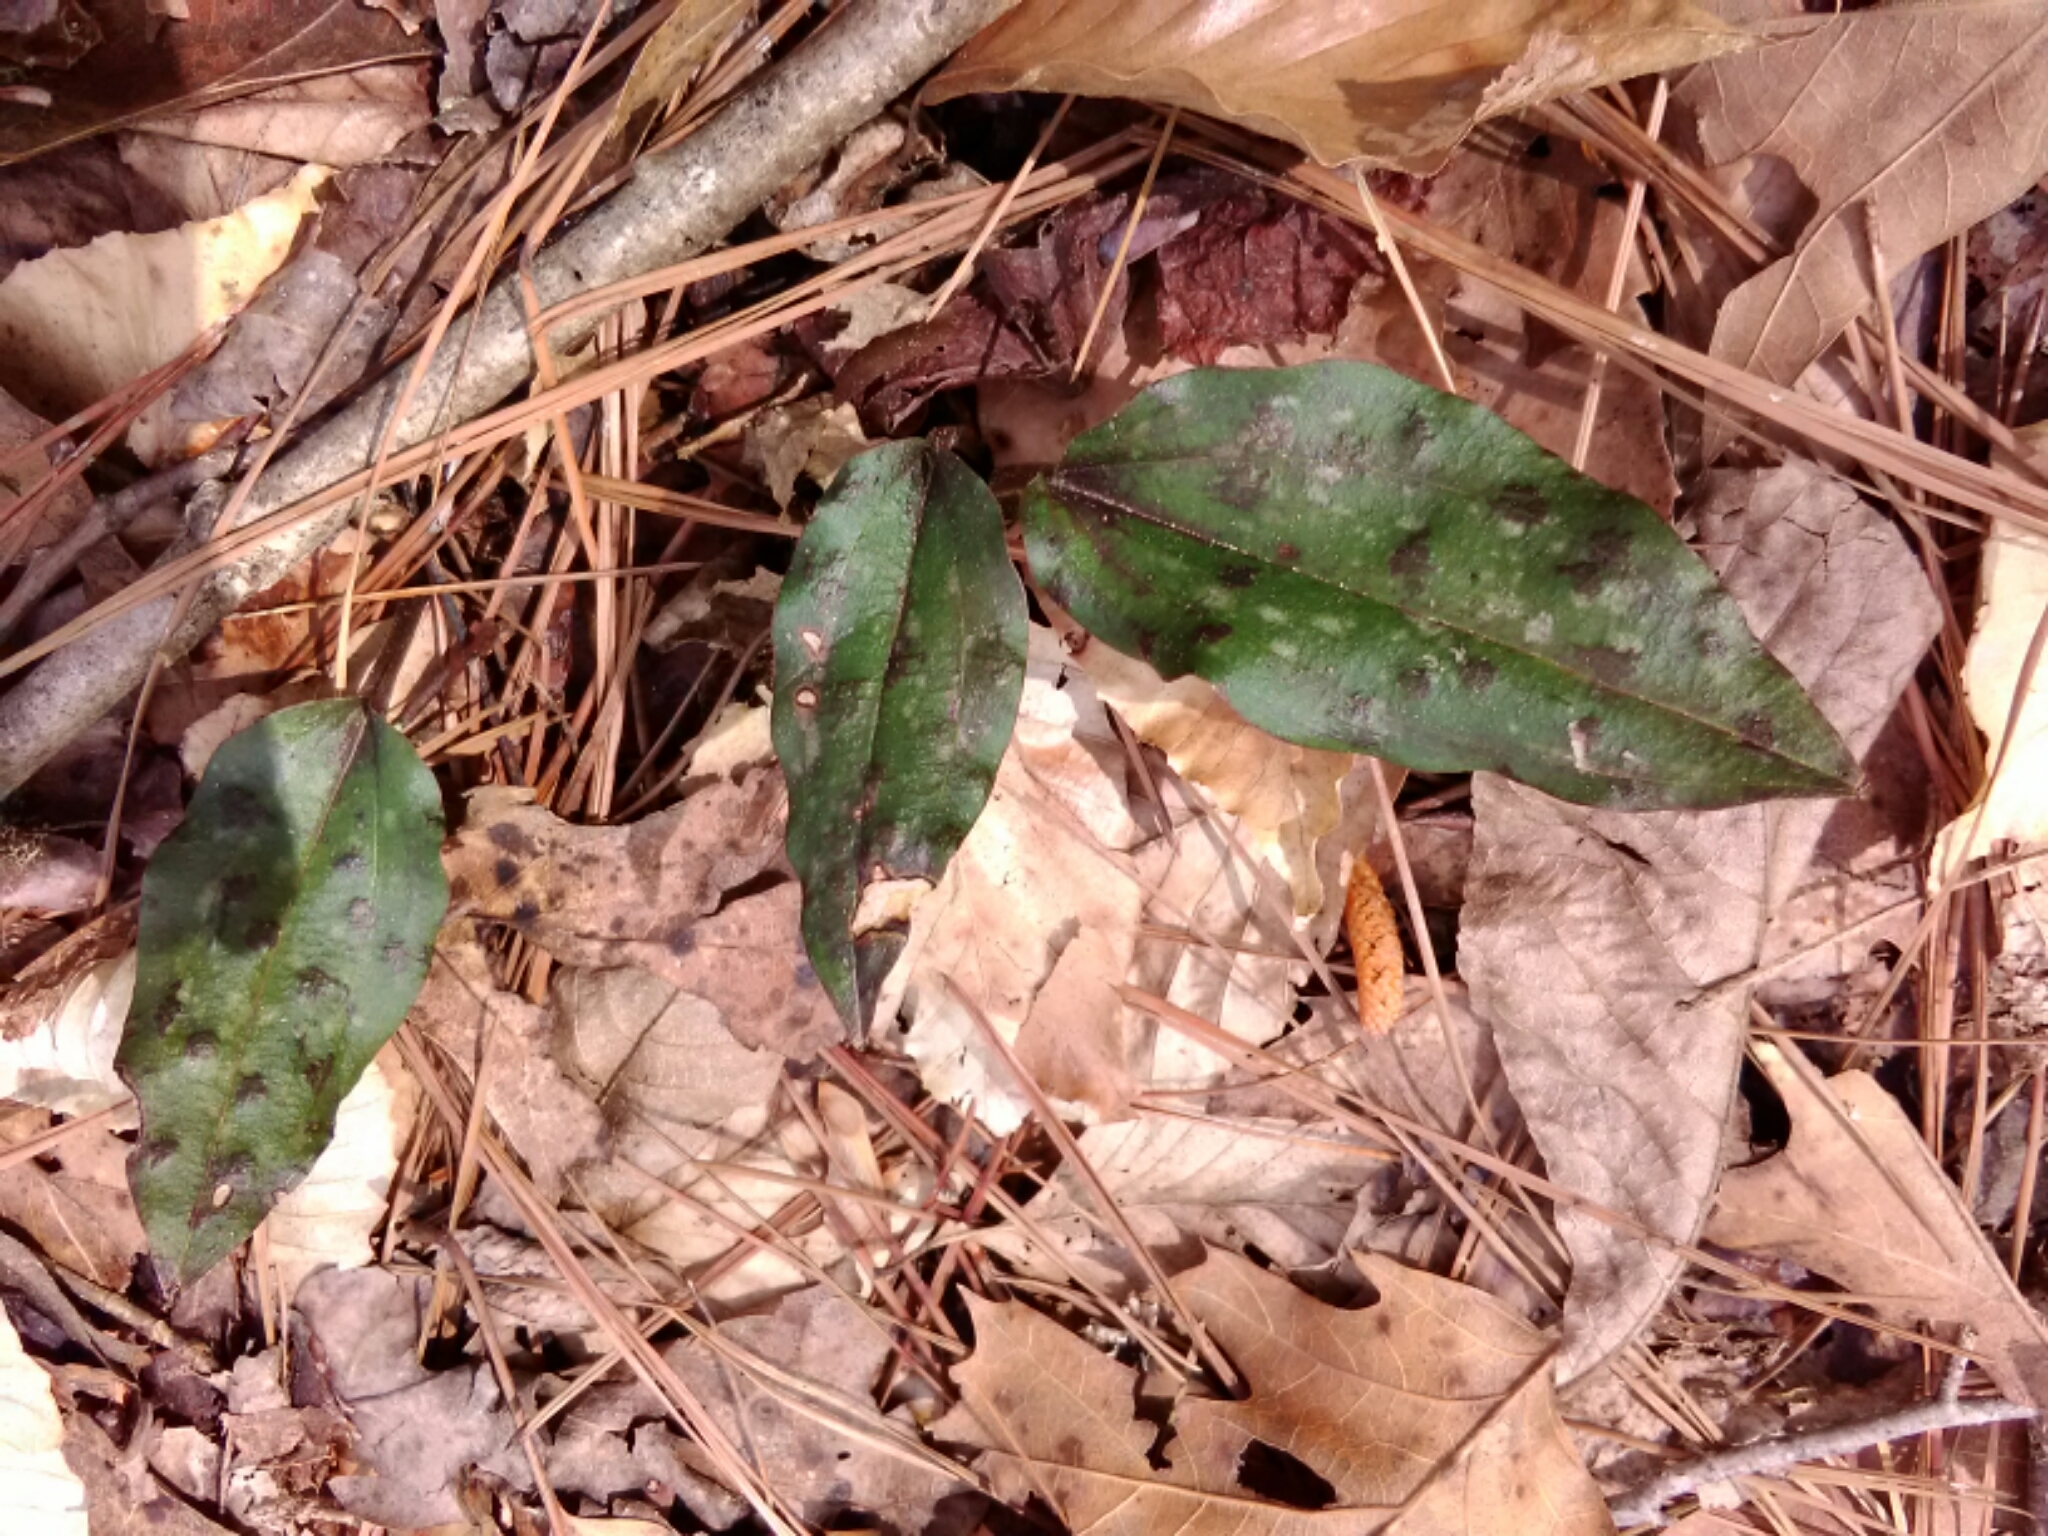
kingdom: Plantae
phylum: Tracheophyta
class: Liliopsida
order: Asparagales
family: Orchidaceae
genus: Tipularia
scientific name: Tipularia discolor
